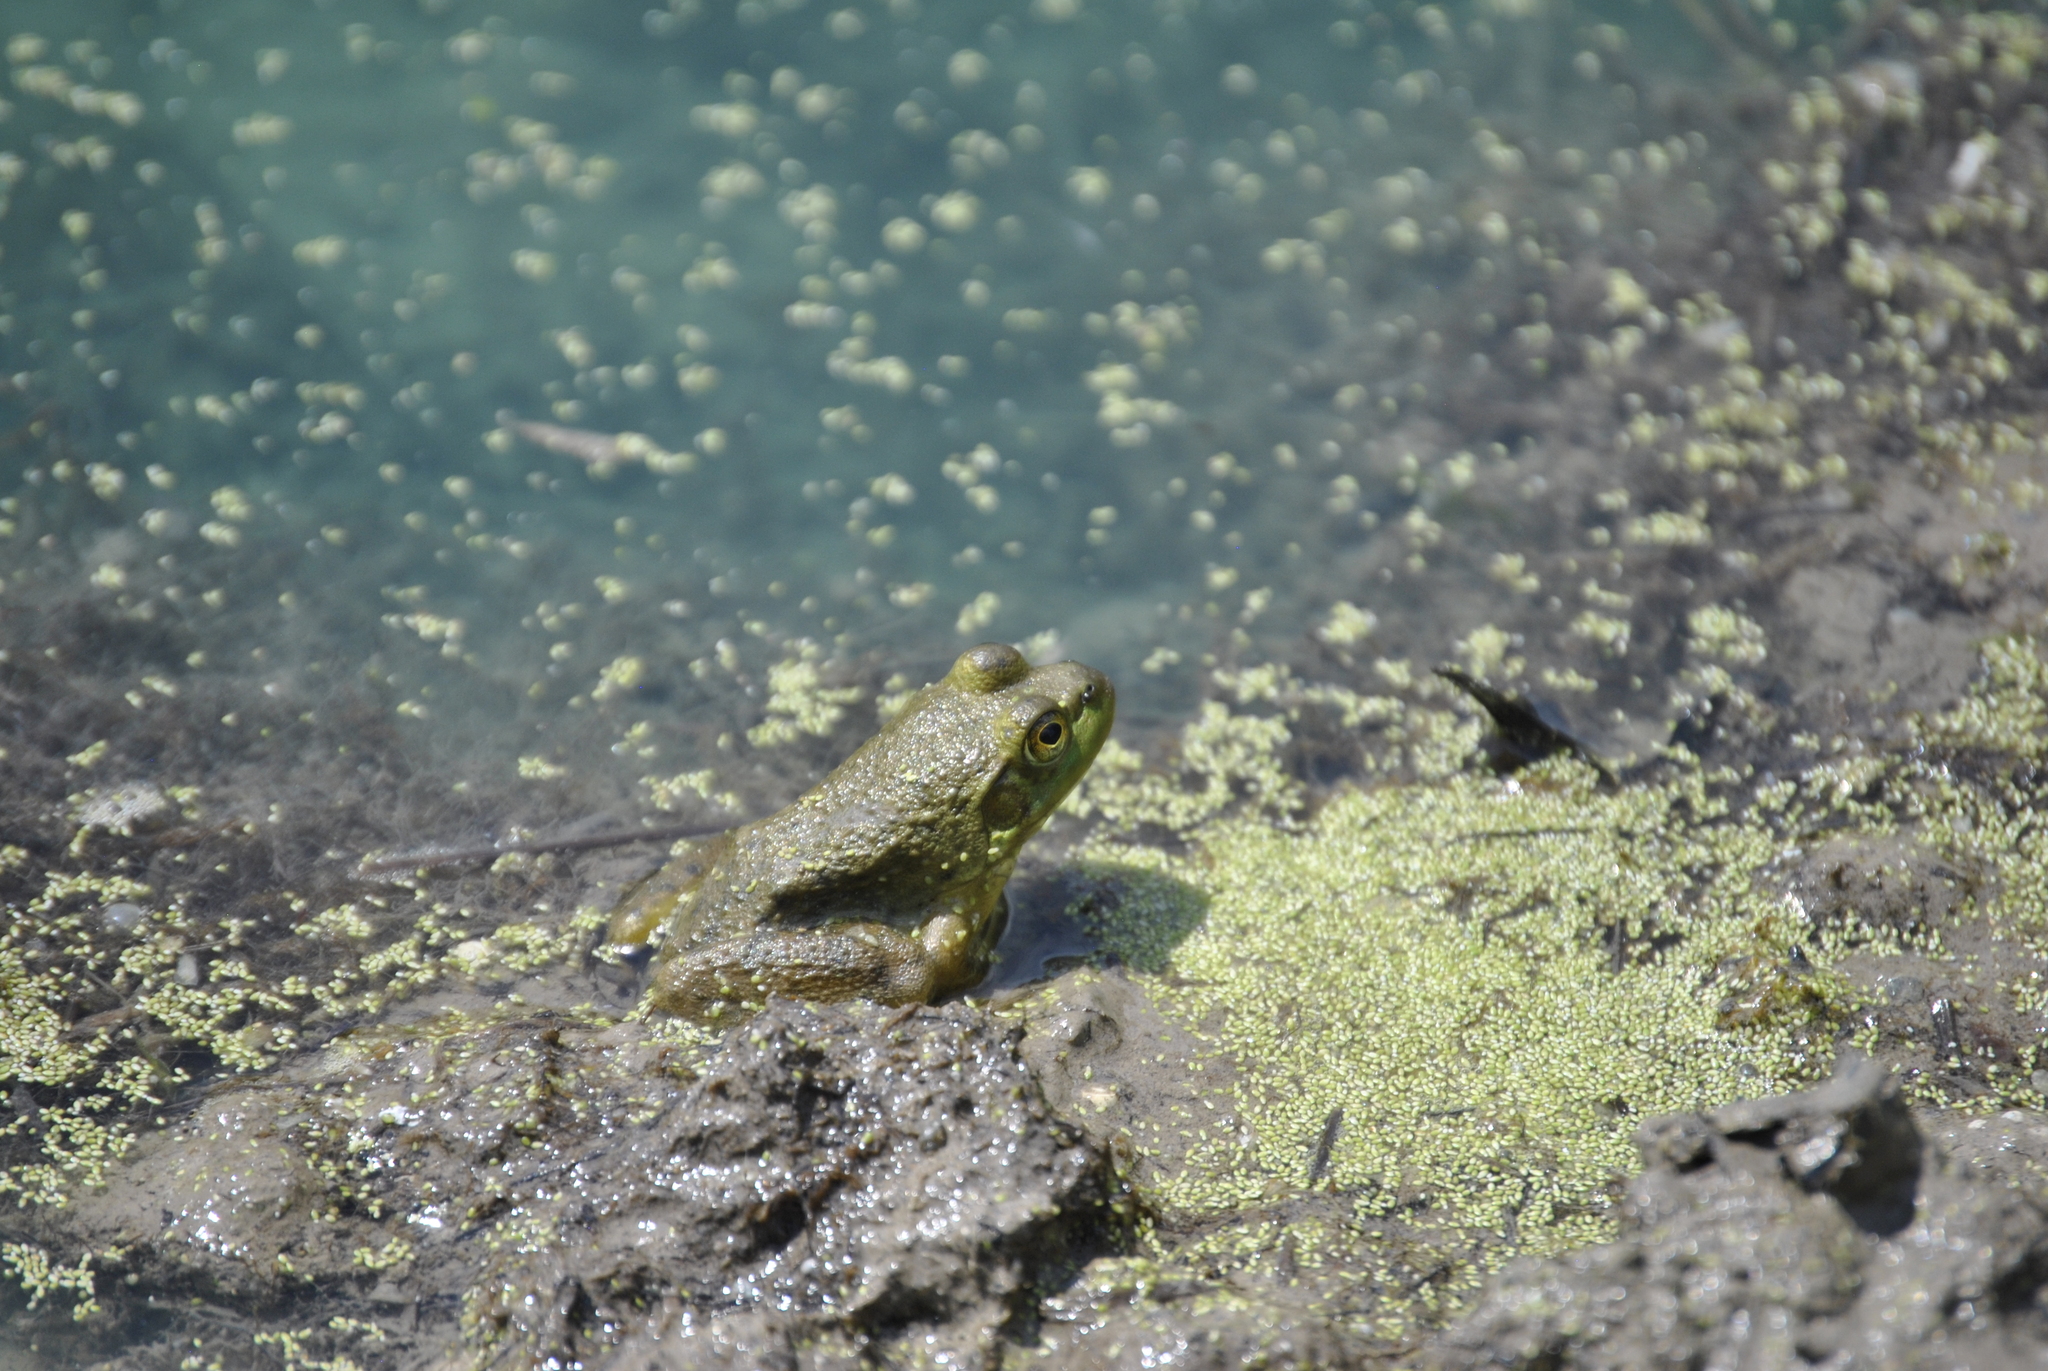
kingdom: Animalia
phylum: Chordata
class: Amphibia
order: Anura
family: Ranidae
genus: Lithobates
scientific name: Lithobates catesbeianus
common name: American bullfrog
